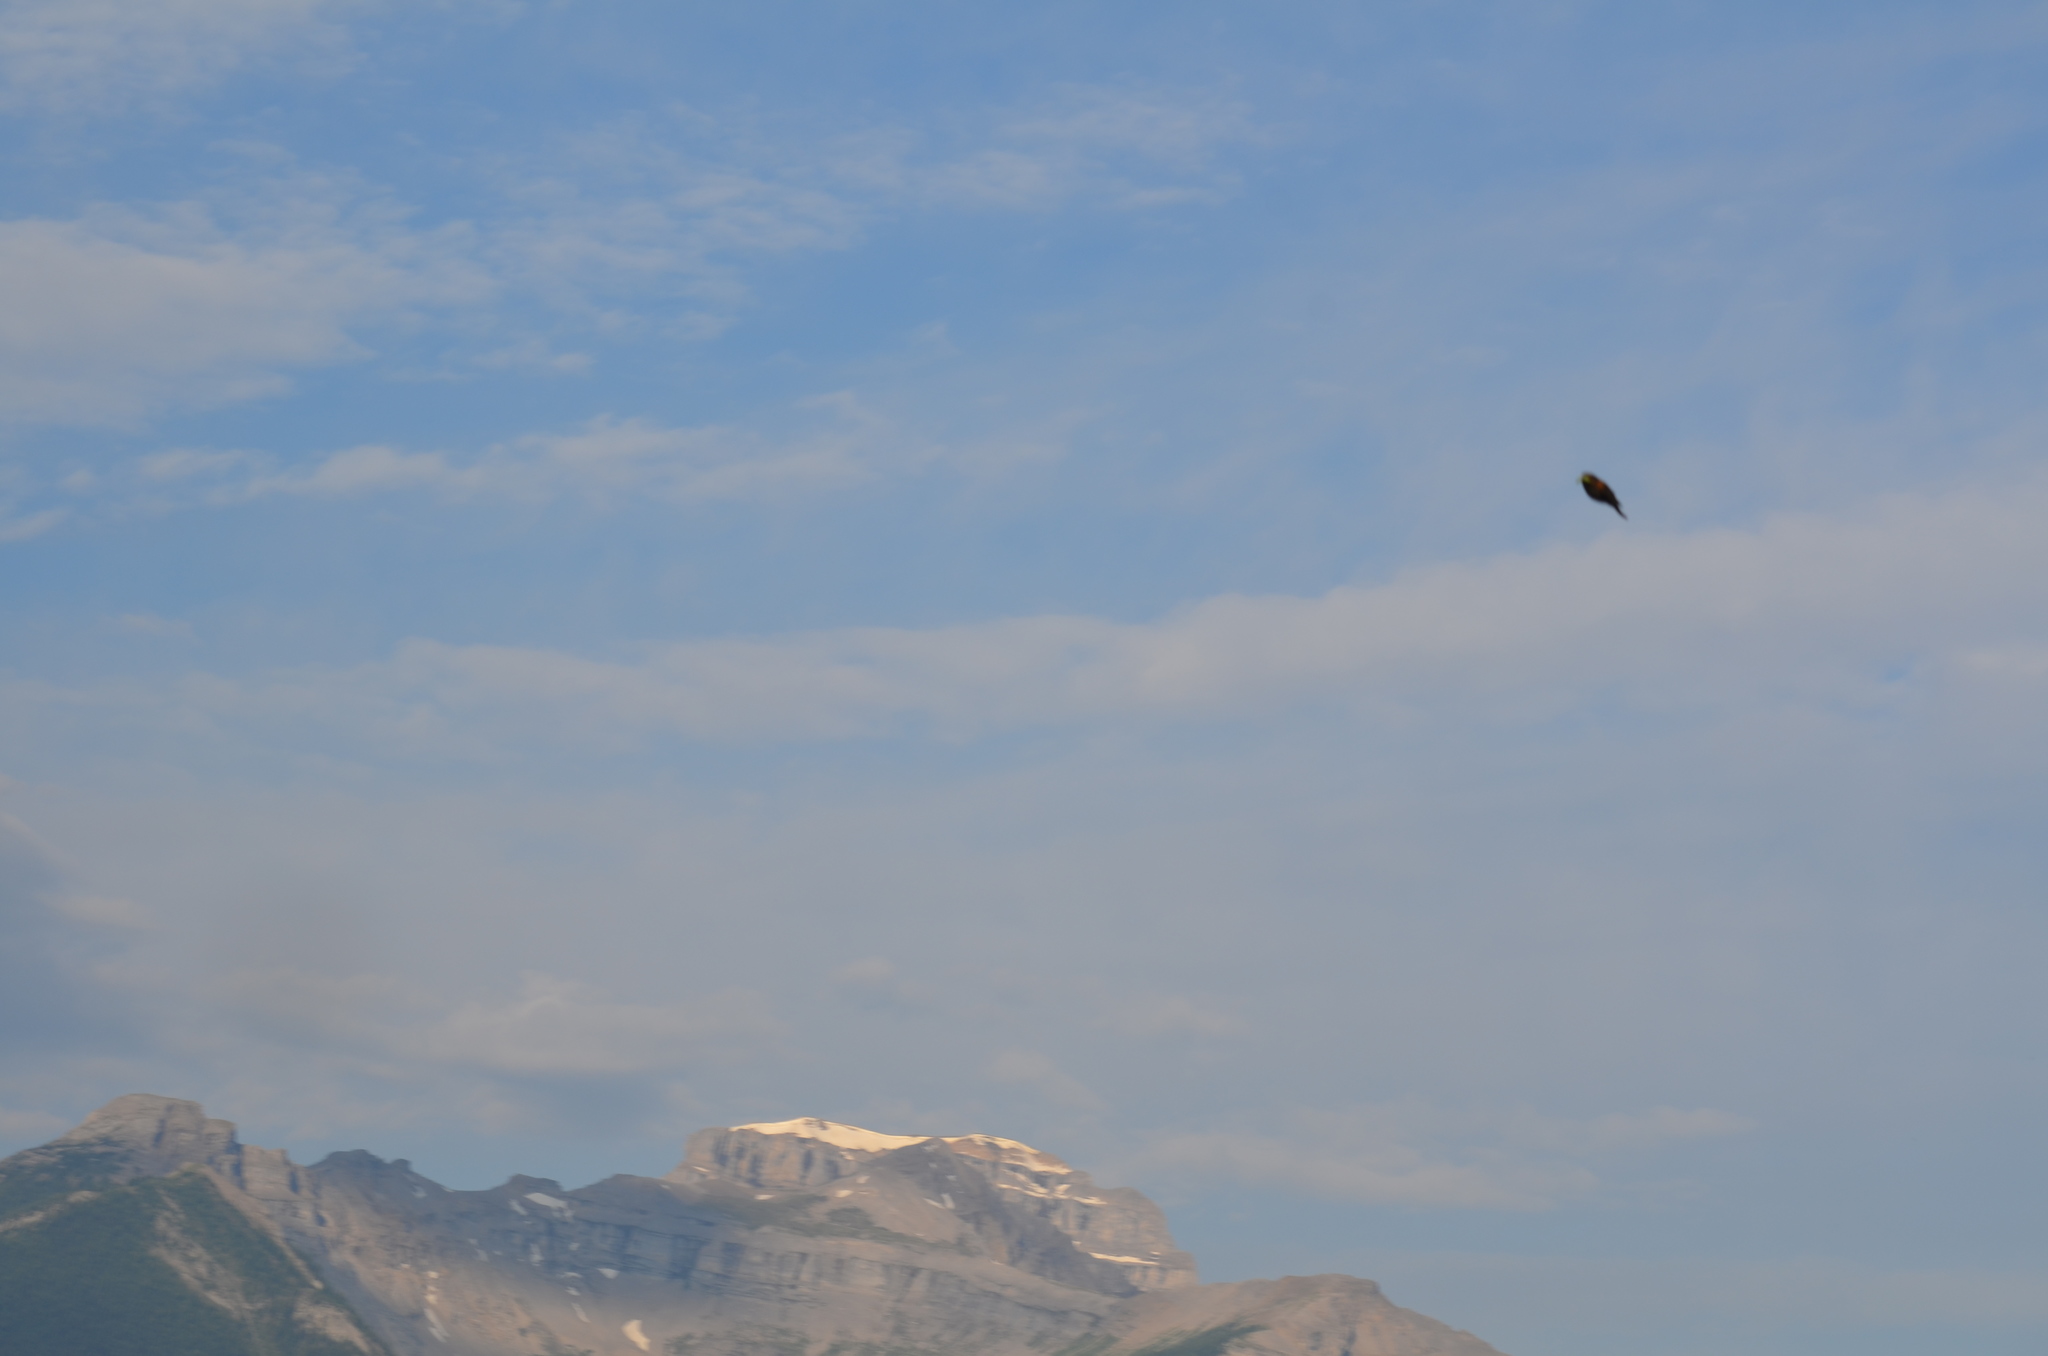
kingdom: Animalia
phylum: Chordata
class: Aves
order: Passeriformes
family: Icteridae
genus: Agelaius
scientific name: Agelaius phoeniceus
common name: Red-winged blackbird
